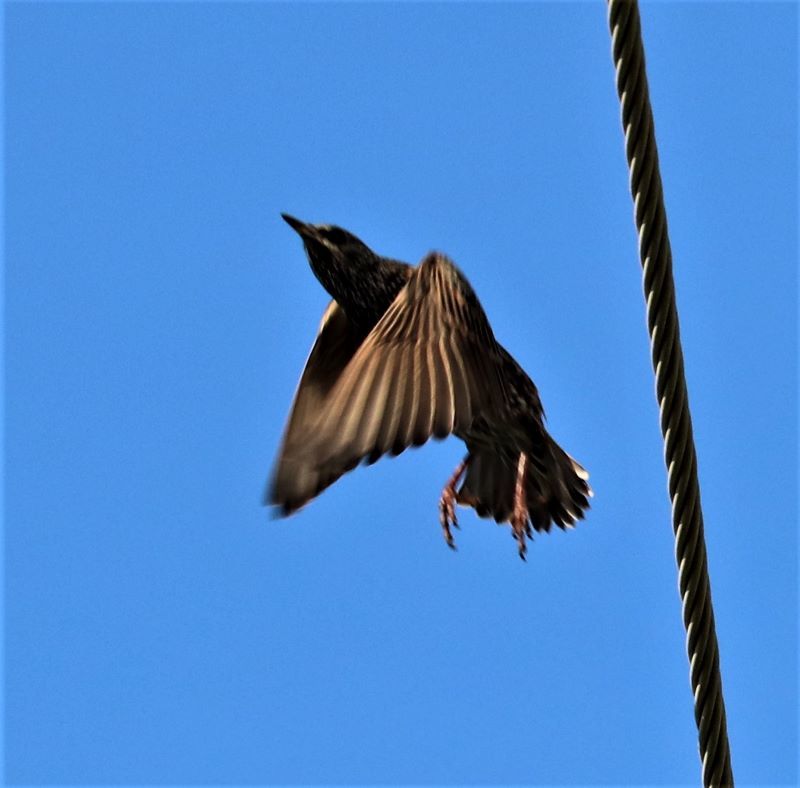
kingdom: Animalia
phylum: Chordata
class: Aves
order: Passeriformes
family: Sturnidae
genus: Sturnus
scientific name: Sturnus vulgaris
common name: Common starling
